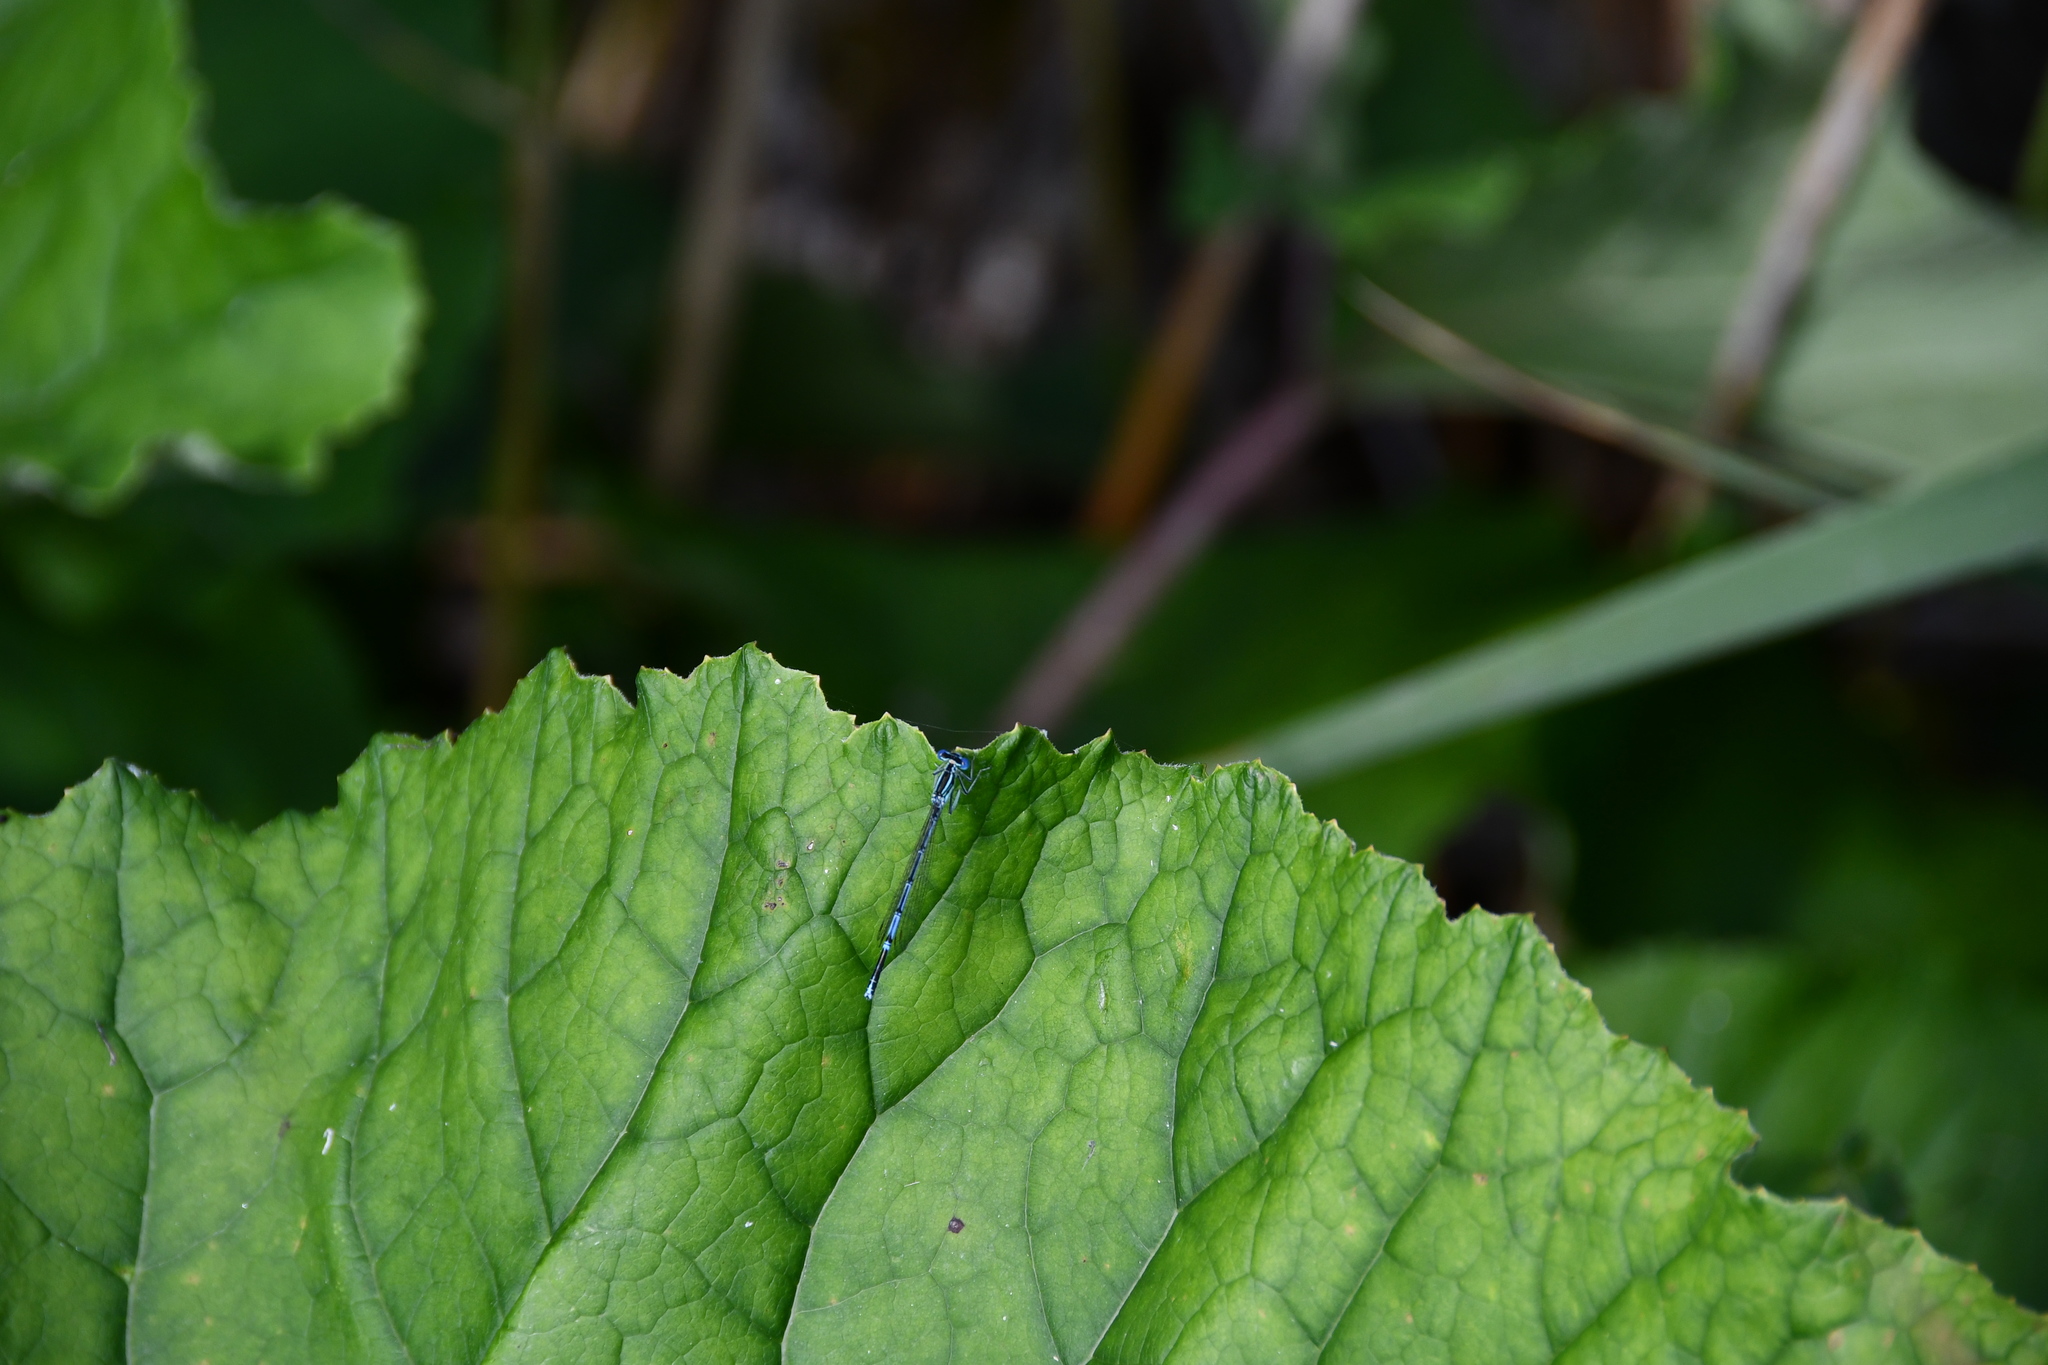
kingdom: Animalia
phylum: Arthropoda
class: Insecta
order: Odonata
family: Platycnemididae
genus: Platycnemis
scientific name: Platycnemis pennipes
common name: White-legged damselfly
